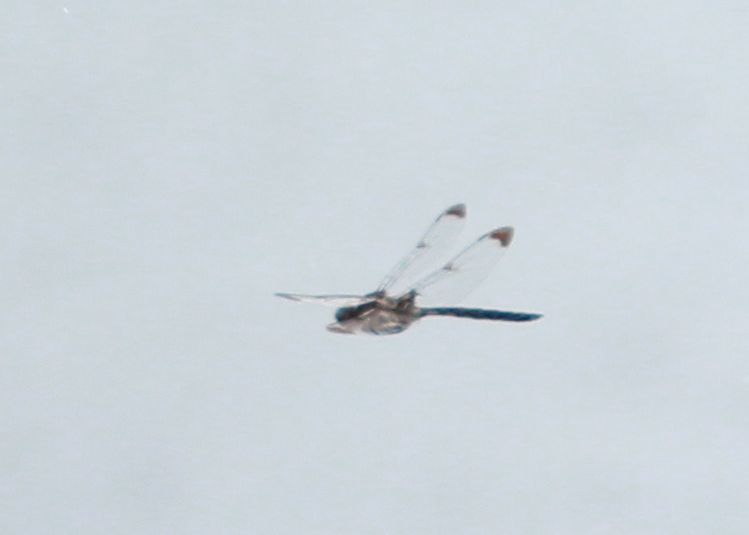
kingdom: Animalia
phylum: Arthropoda
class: Insecta
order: Odonata
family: Corduliidae
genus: Epitheca
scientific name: Epitheca princeps
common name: Prince baskettail
